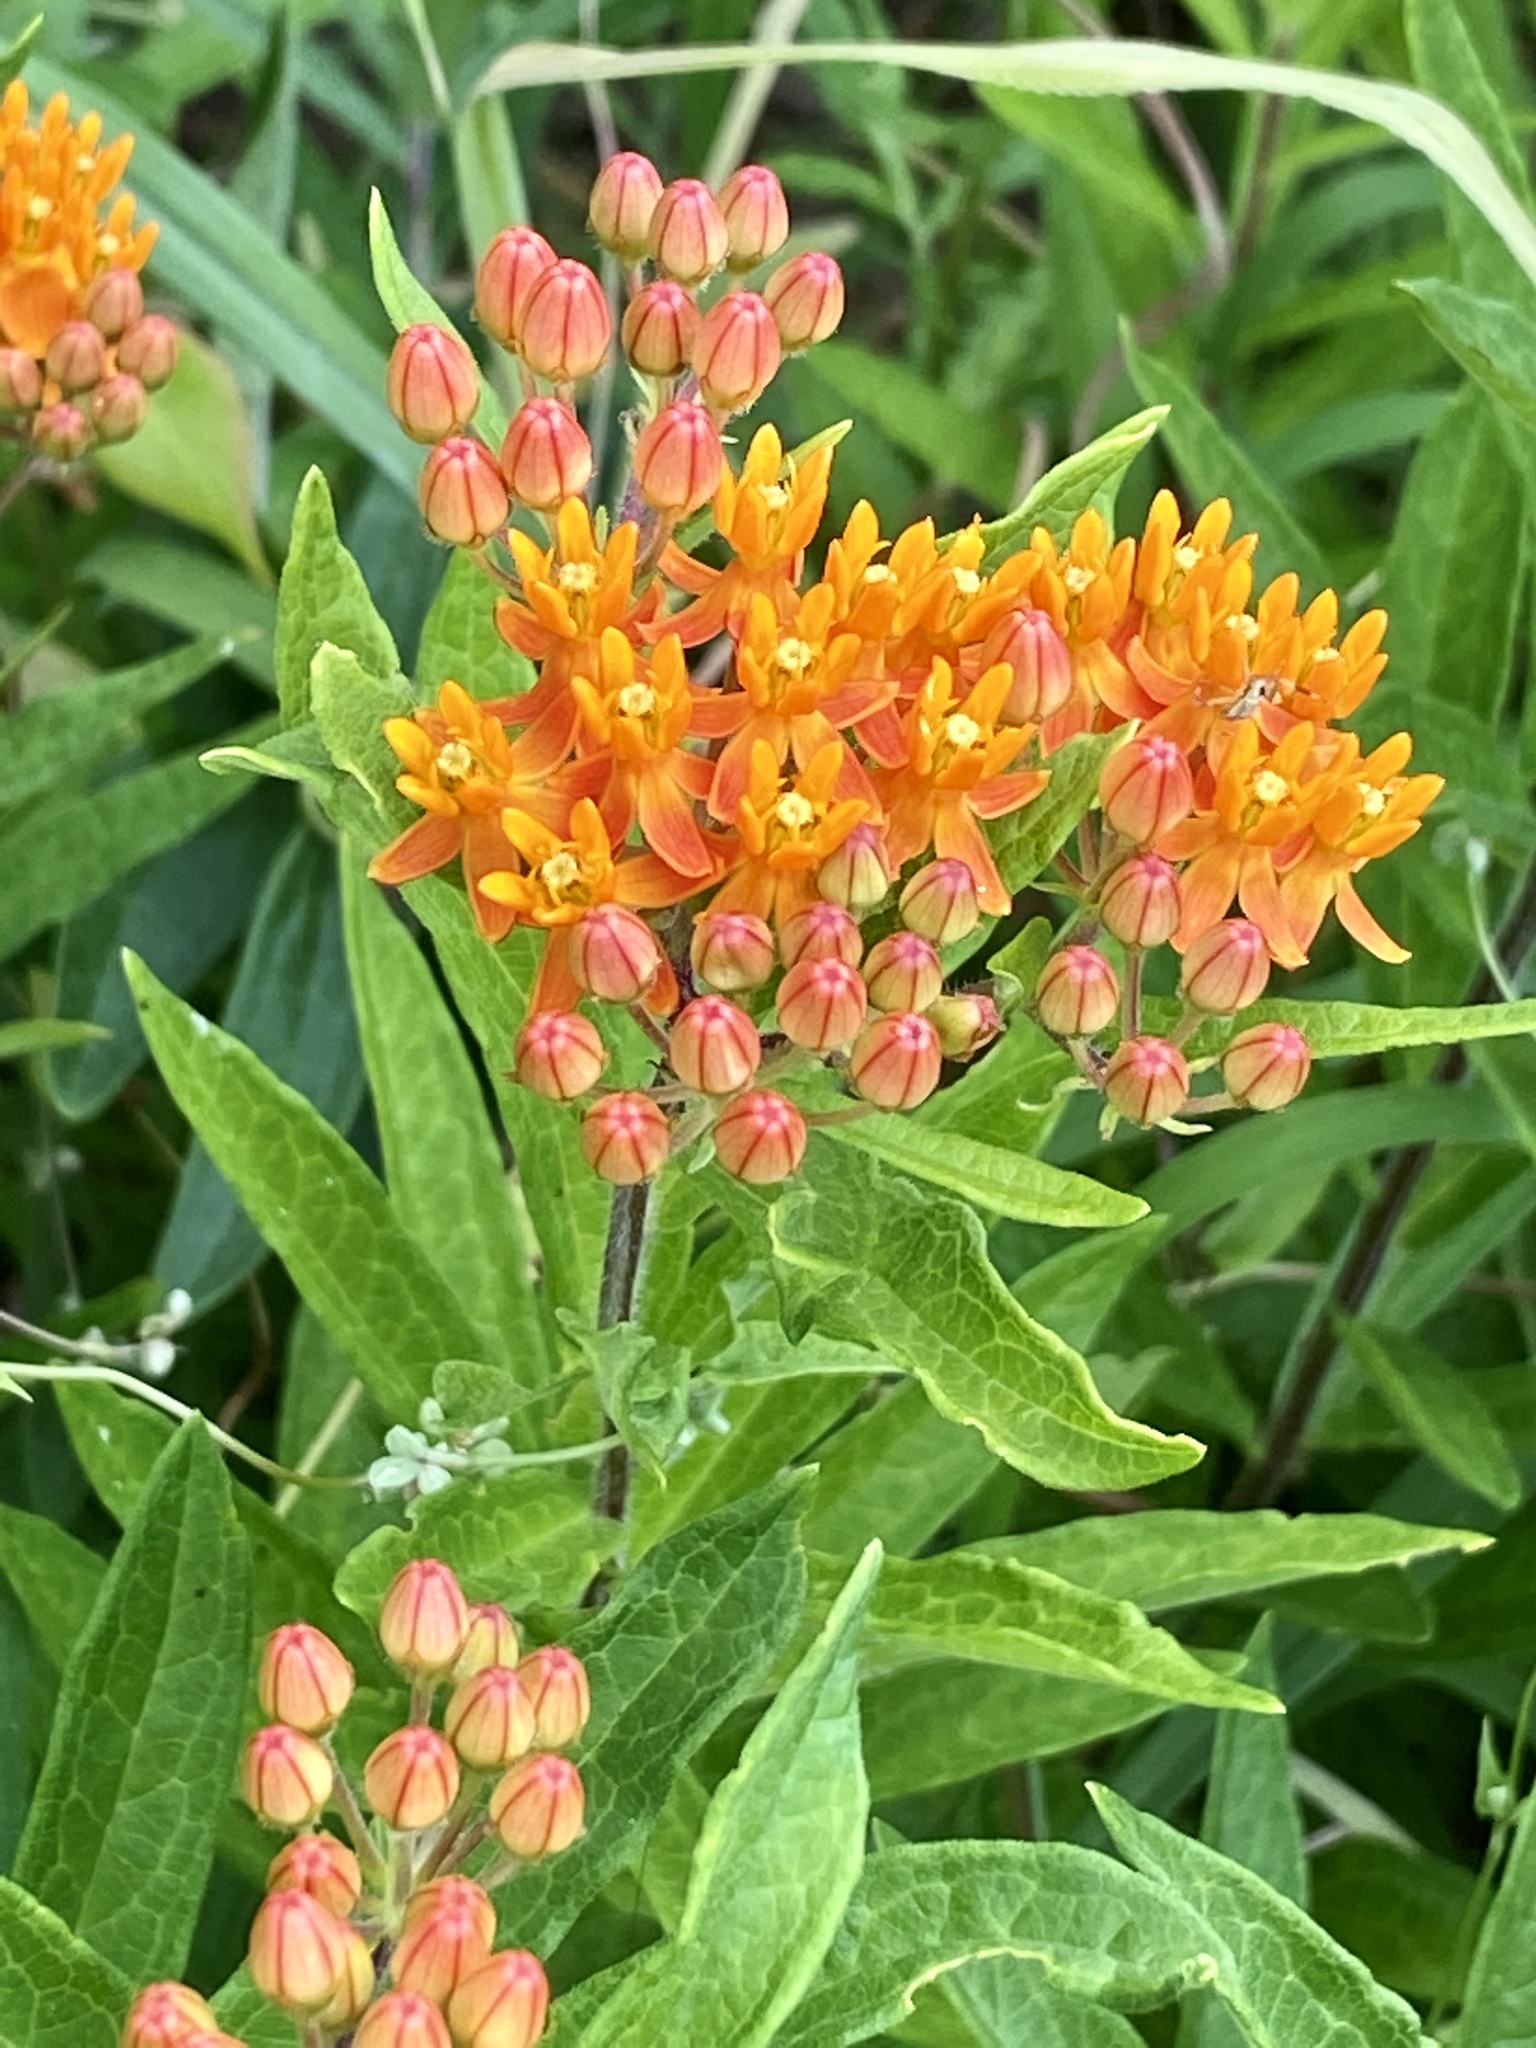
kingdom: Plantae
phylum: Tracheophyta
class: Magnoliopsida
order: Gentianales
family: Apocynaceae
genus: Asclepias
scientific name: Asclepias tuberosa
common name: Butterfly milkweed
